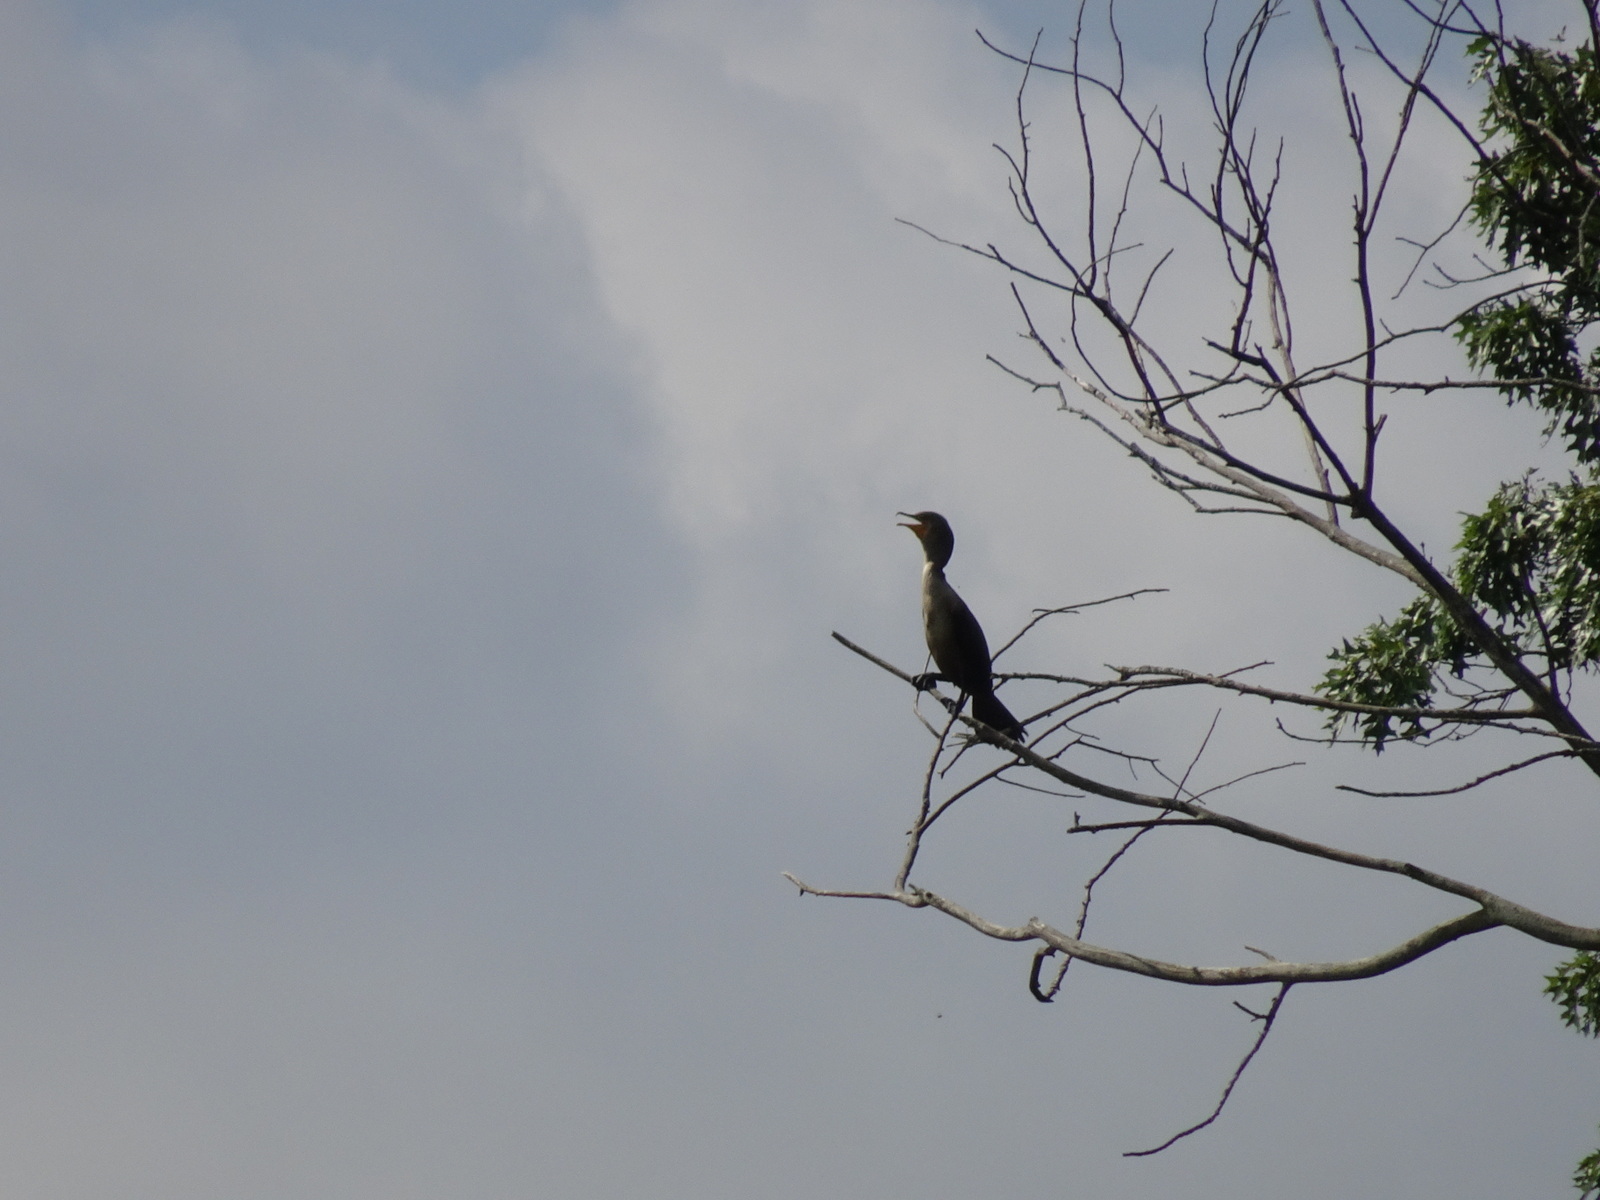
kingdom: Animalia
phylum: Chordata
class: Aves
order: Suliformes
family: Phalacrocoracidae
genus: Phalacrocorax
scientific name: Phalacrocorax auritus
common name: Double-crested cormorant
